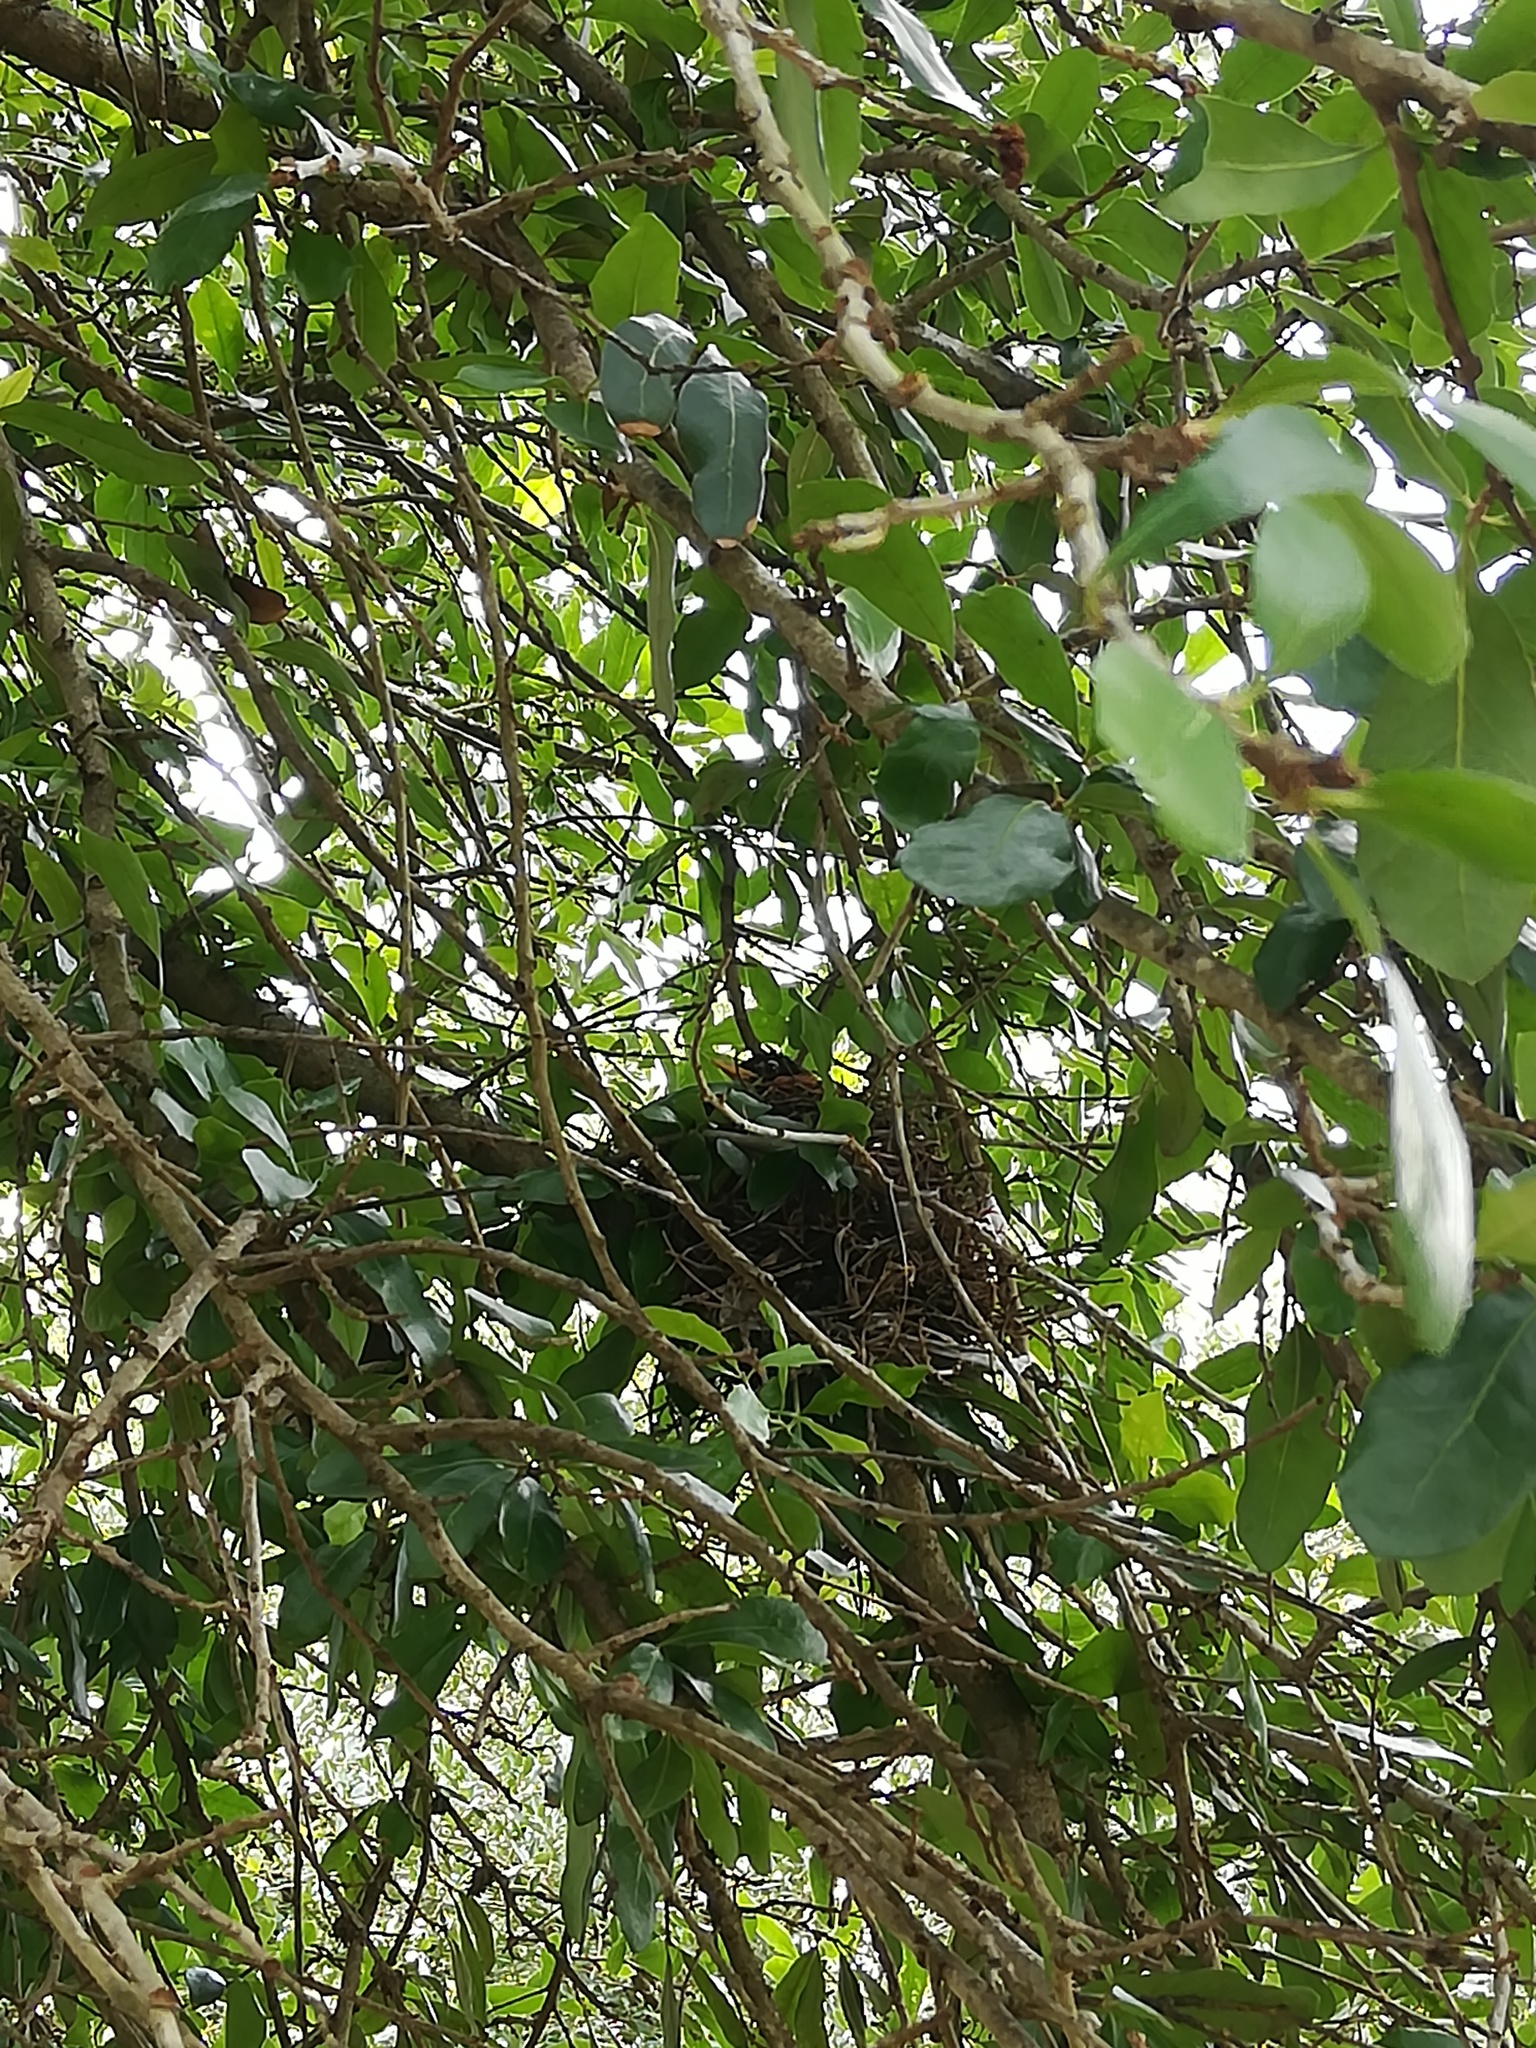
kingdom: Animalia
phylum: Chordata
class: Aves
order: Passeriformes
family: Turdidae
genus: Turdus
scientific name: Turdus migratorius
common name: American robin
